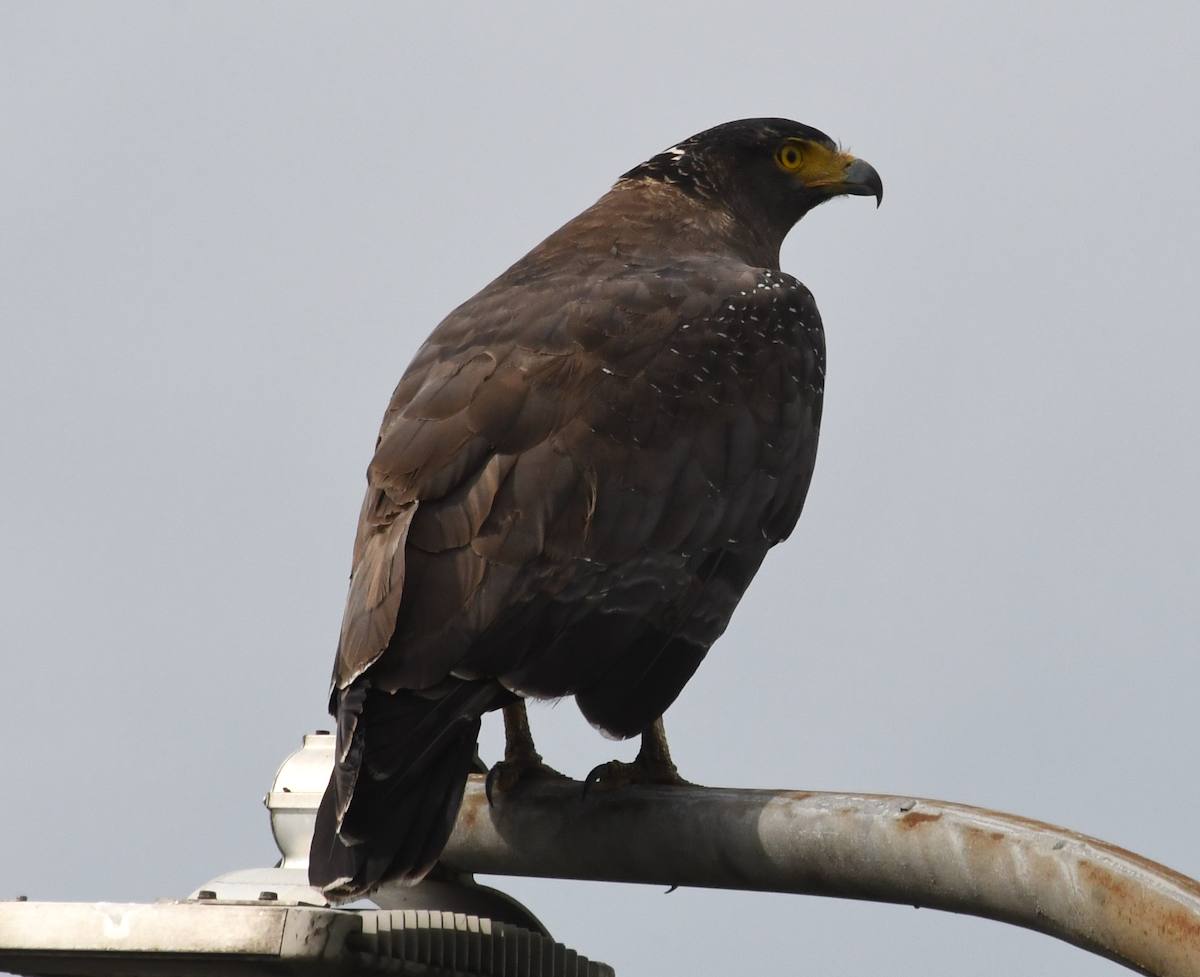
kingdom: Animalia
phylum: Chordata
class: Aves
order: Accipitriformes
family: Accipitridae
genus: Spilornis
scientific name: Spilornis cheela
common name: Crested serpent eagle
